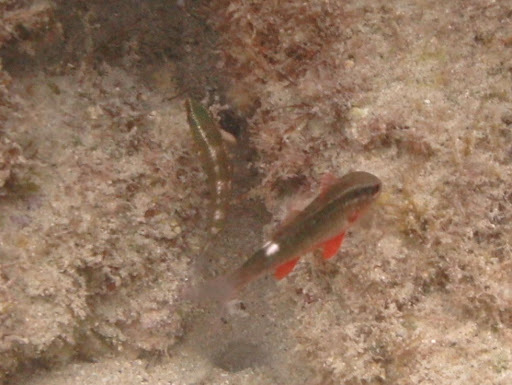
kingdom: Animalia
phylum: Chordata
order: Perciformes
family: Mullidae
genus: Parupeneus
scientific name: Parupeneus porphyreus
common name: Whitesaddle goatfish
